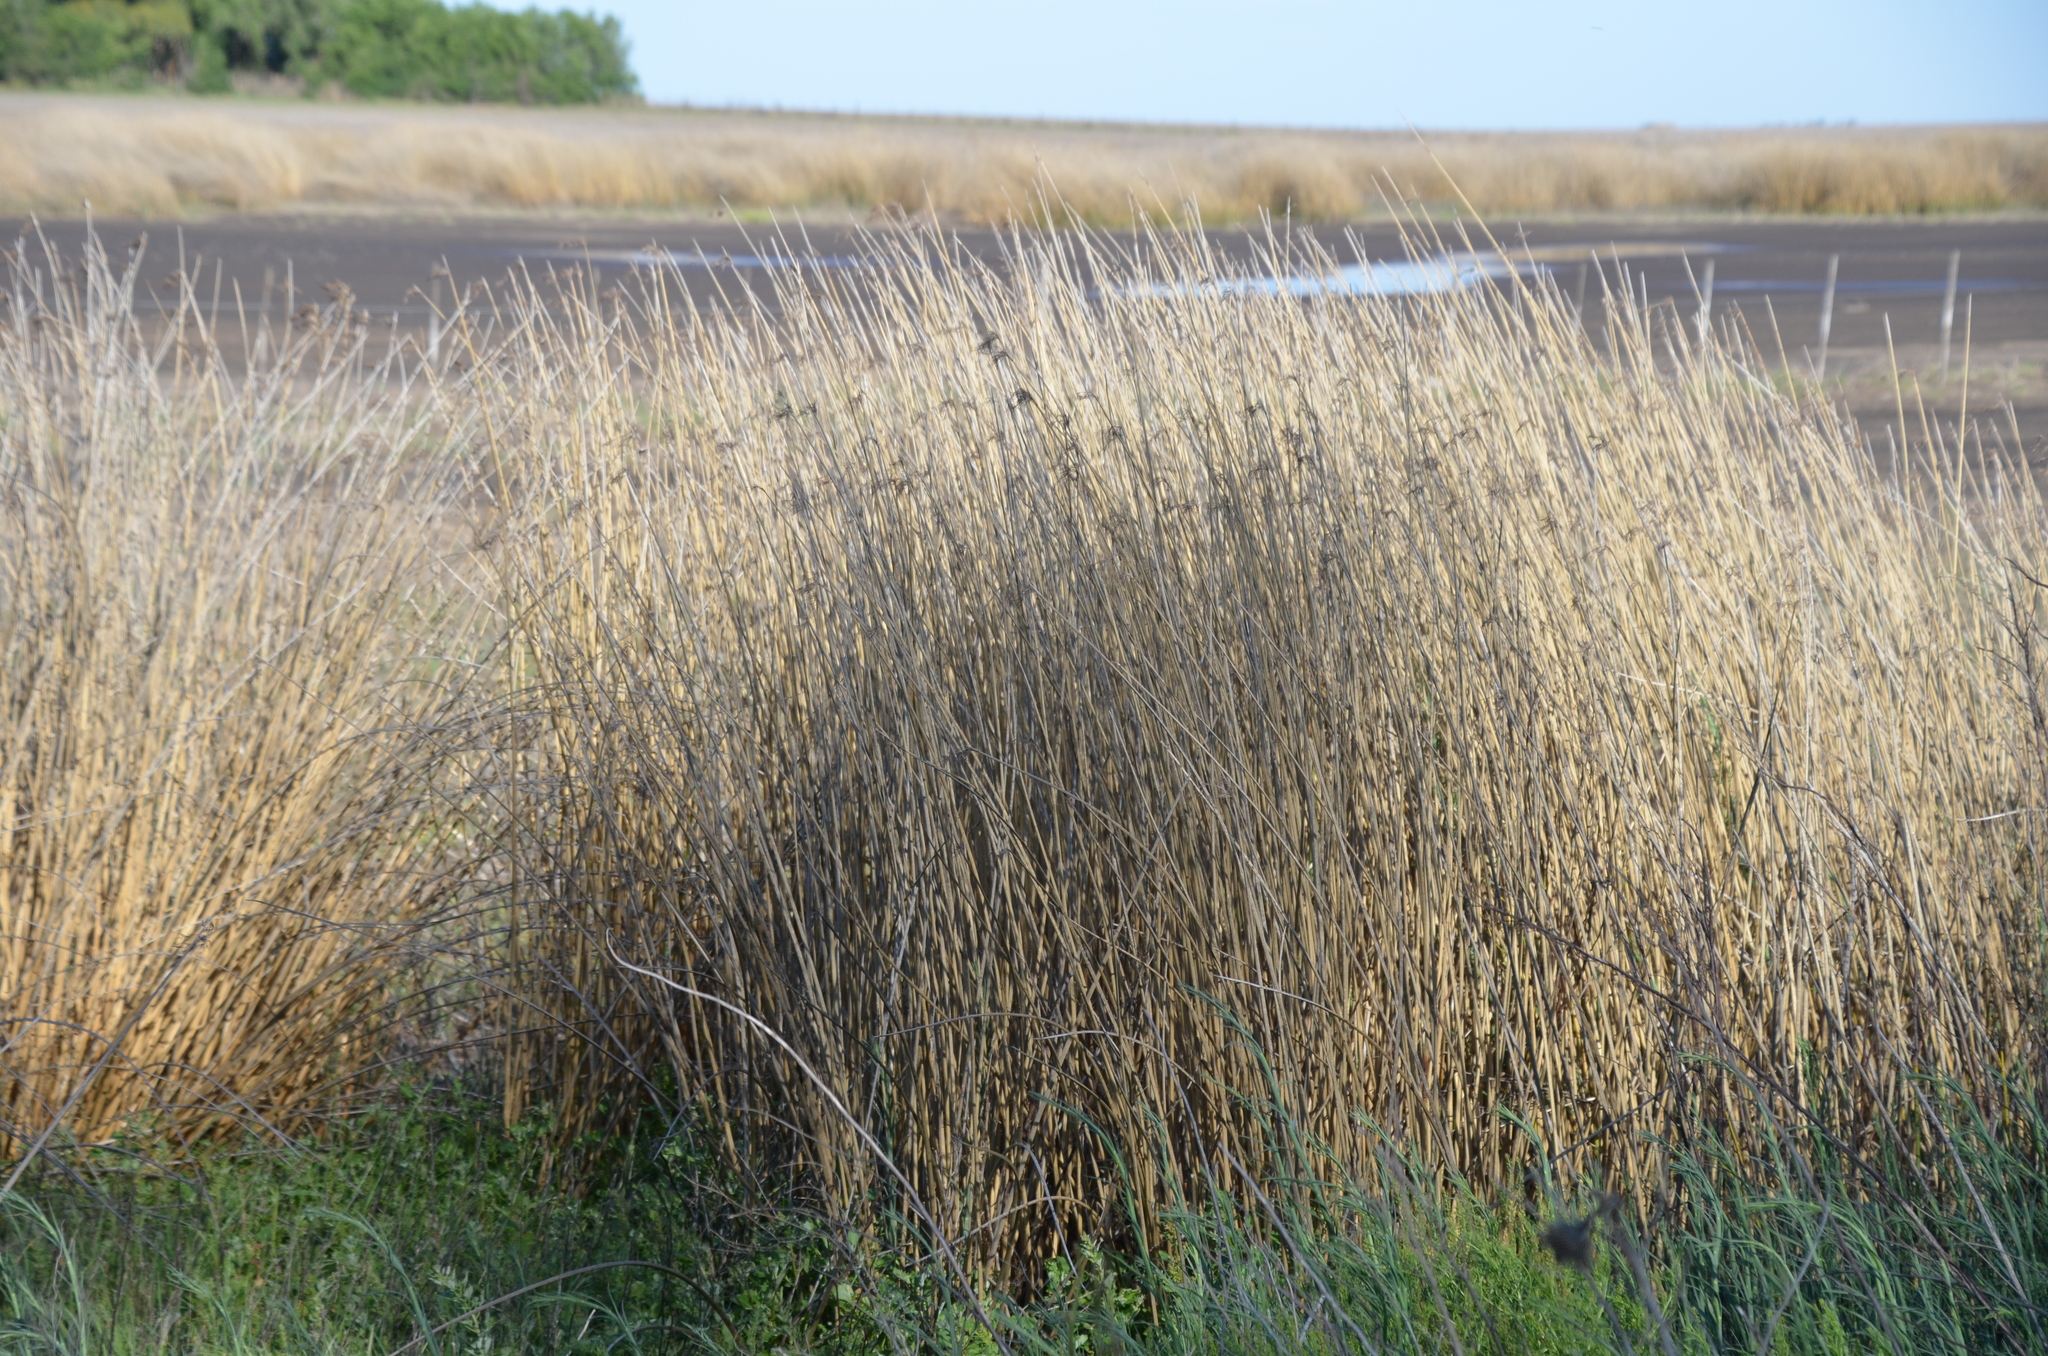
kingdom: Plantae
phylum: Tracheophyta
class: Liliopsida
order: Poales
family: Cyperaceae
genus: Schoenoplectus
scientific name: Schoenoplectus californicus
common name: California bulrush
